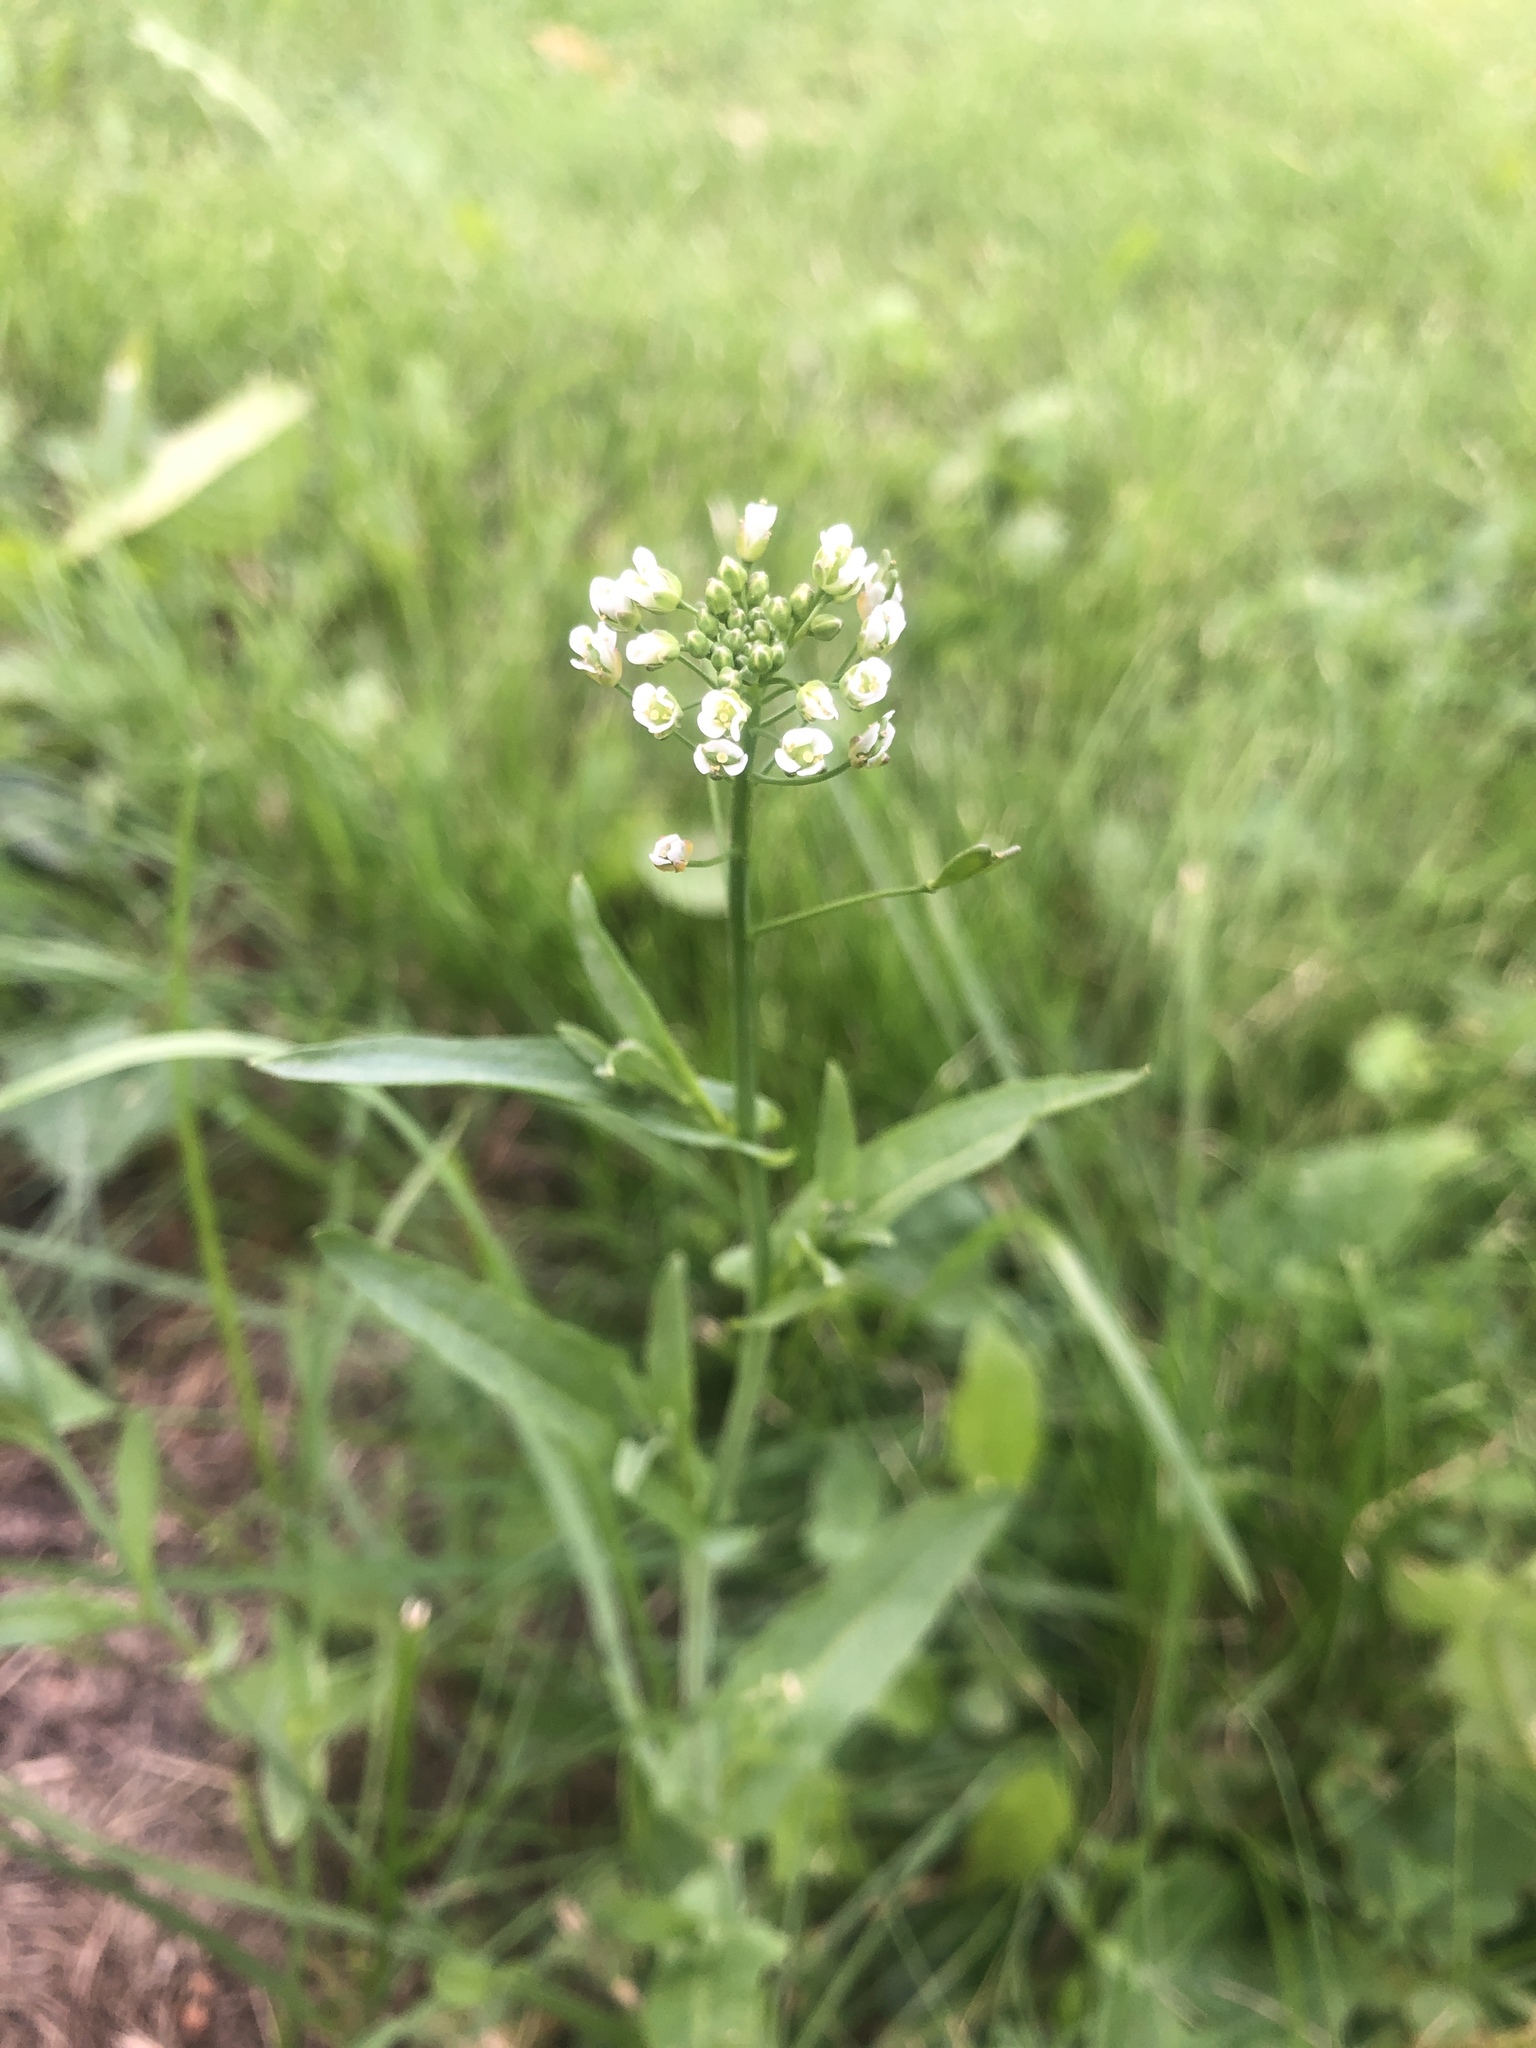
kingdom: Plantae
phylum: Tracheophyta
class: Magnoliopsida
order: Brassicales
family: Brassicaceae
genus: Capsella
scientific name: Capsella bursa-pastoris
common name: Shepherd's purse
